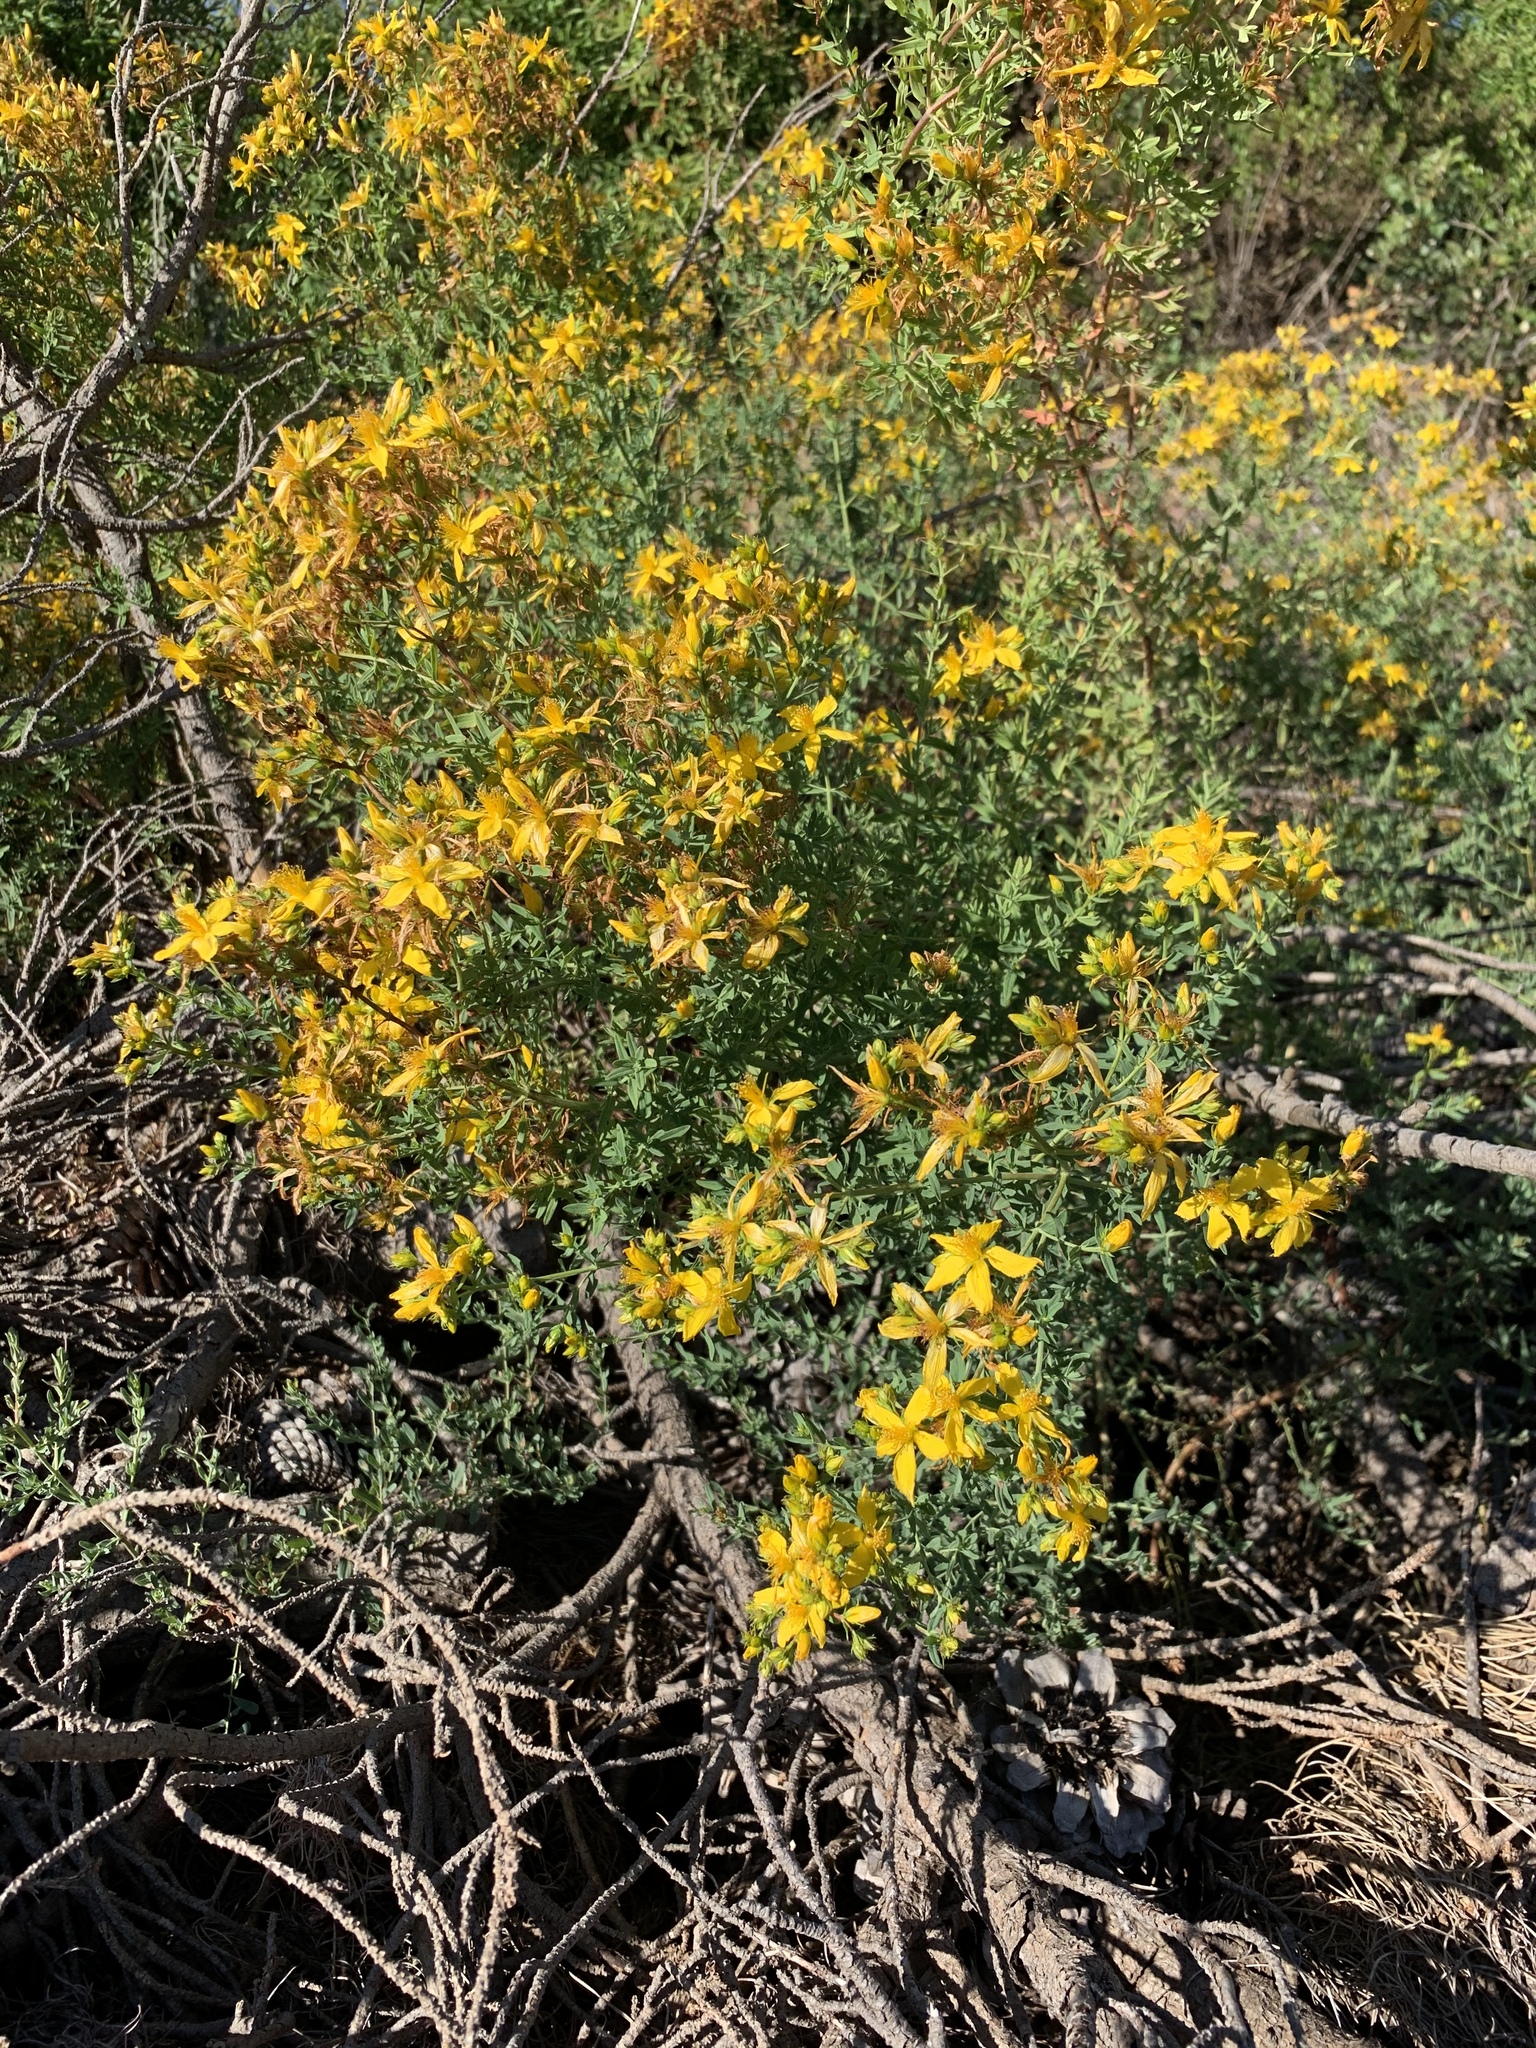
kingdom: Plantae
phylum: Tracheophyta
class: Magnoliopsida
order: Malpighiales
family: Hypericaceae
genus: Hypericum
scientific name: Hypericum perforatum
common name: Common st. johnswort
